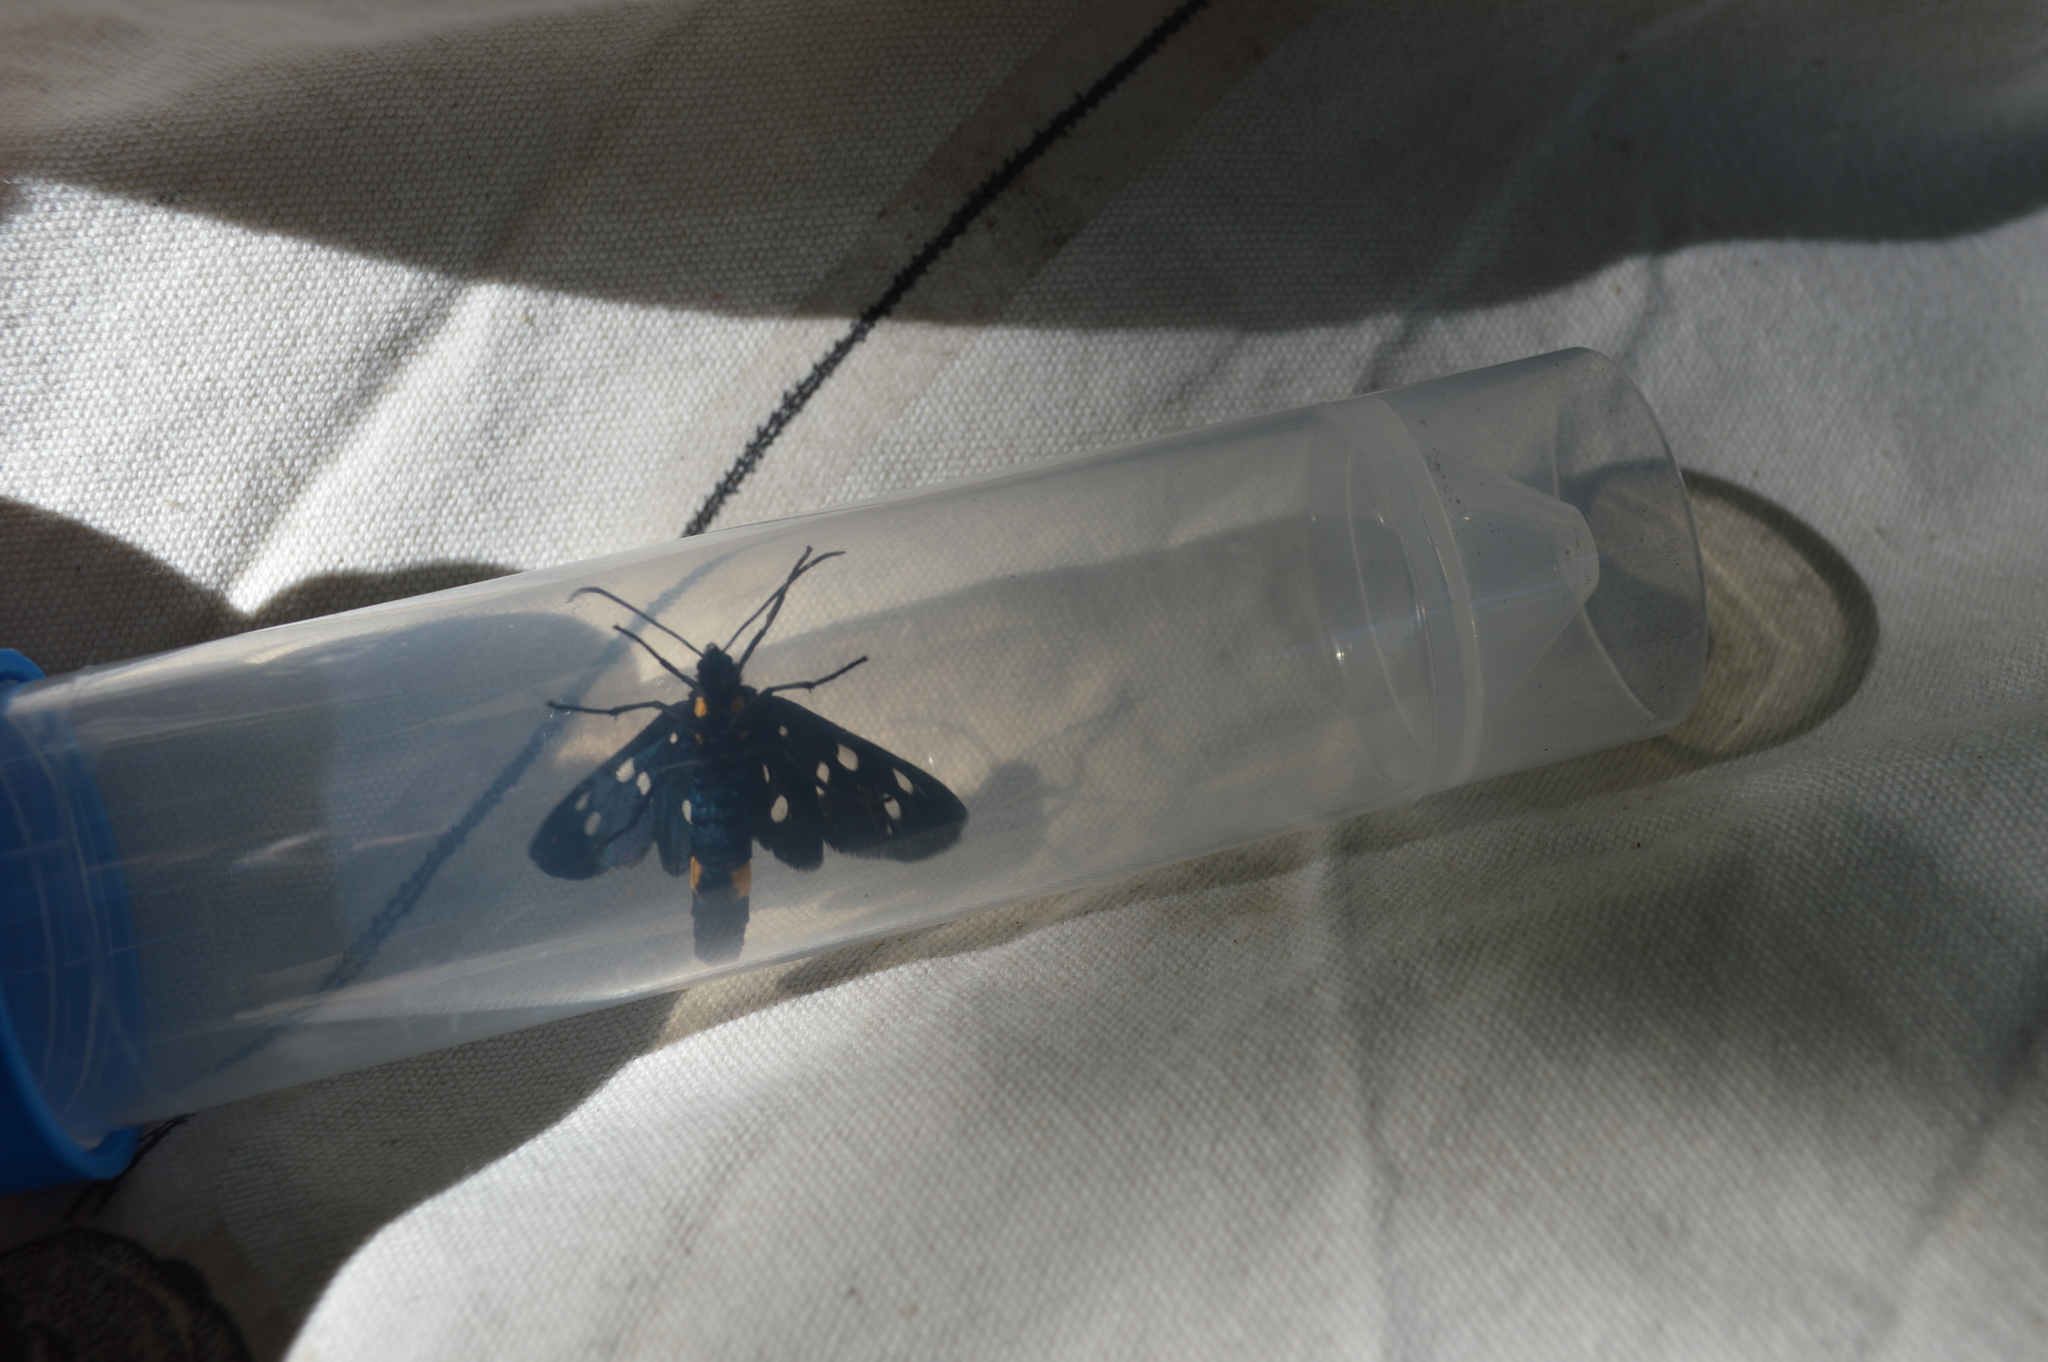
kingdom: Animalia
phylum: Arthropoda
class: Insecta
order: Lepidoptera
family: Erebidae
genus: Amata
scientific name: Amata phegea
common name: Nine-spotted
